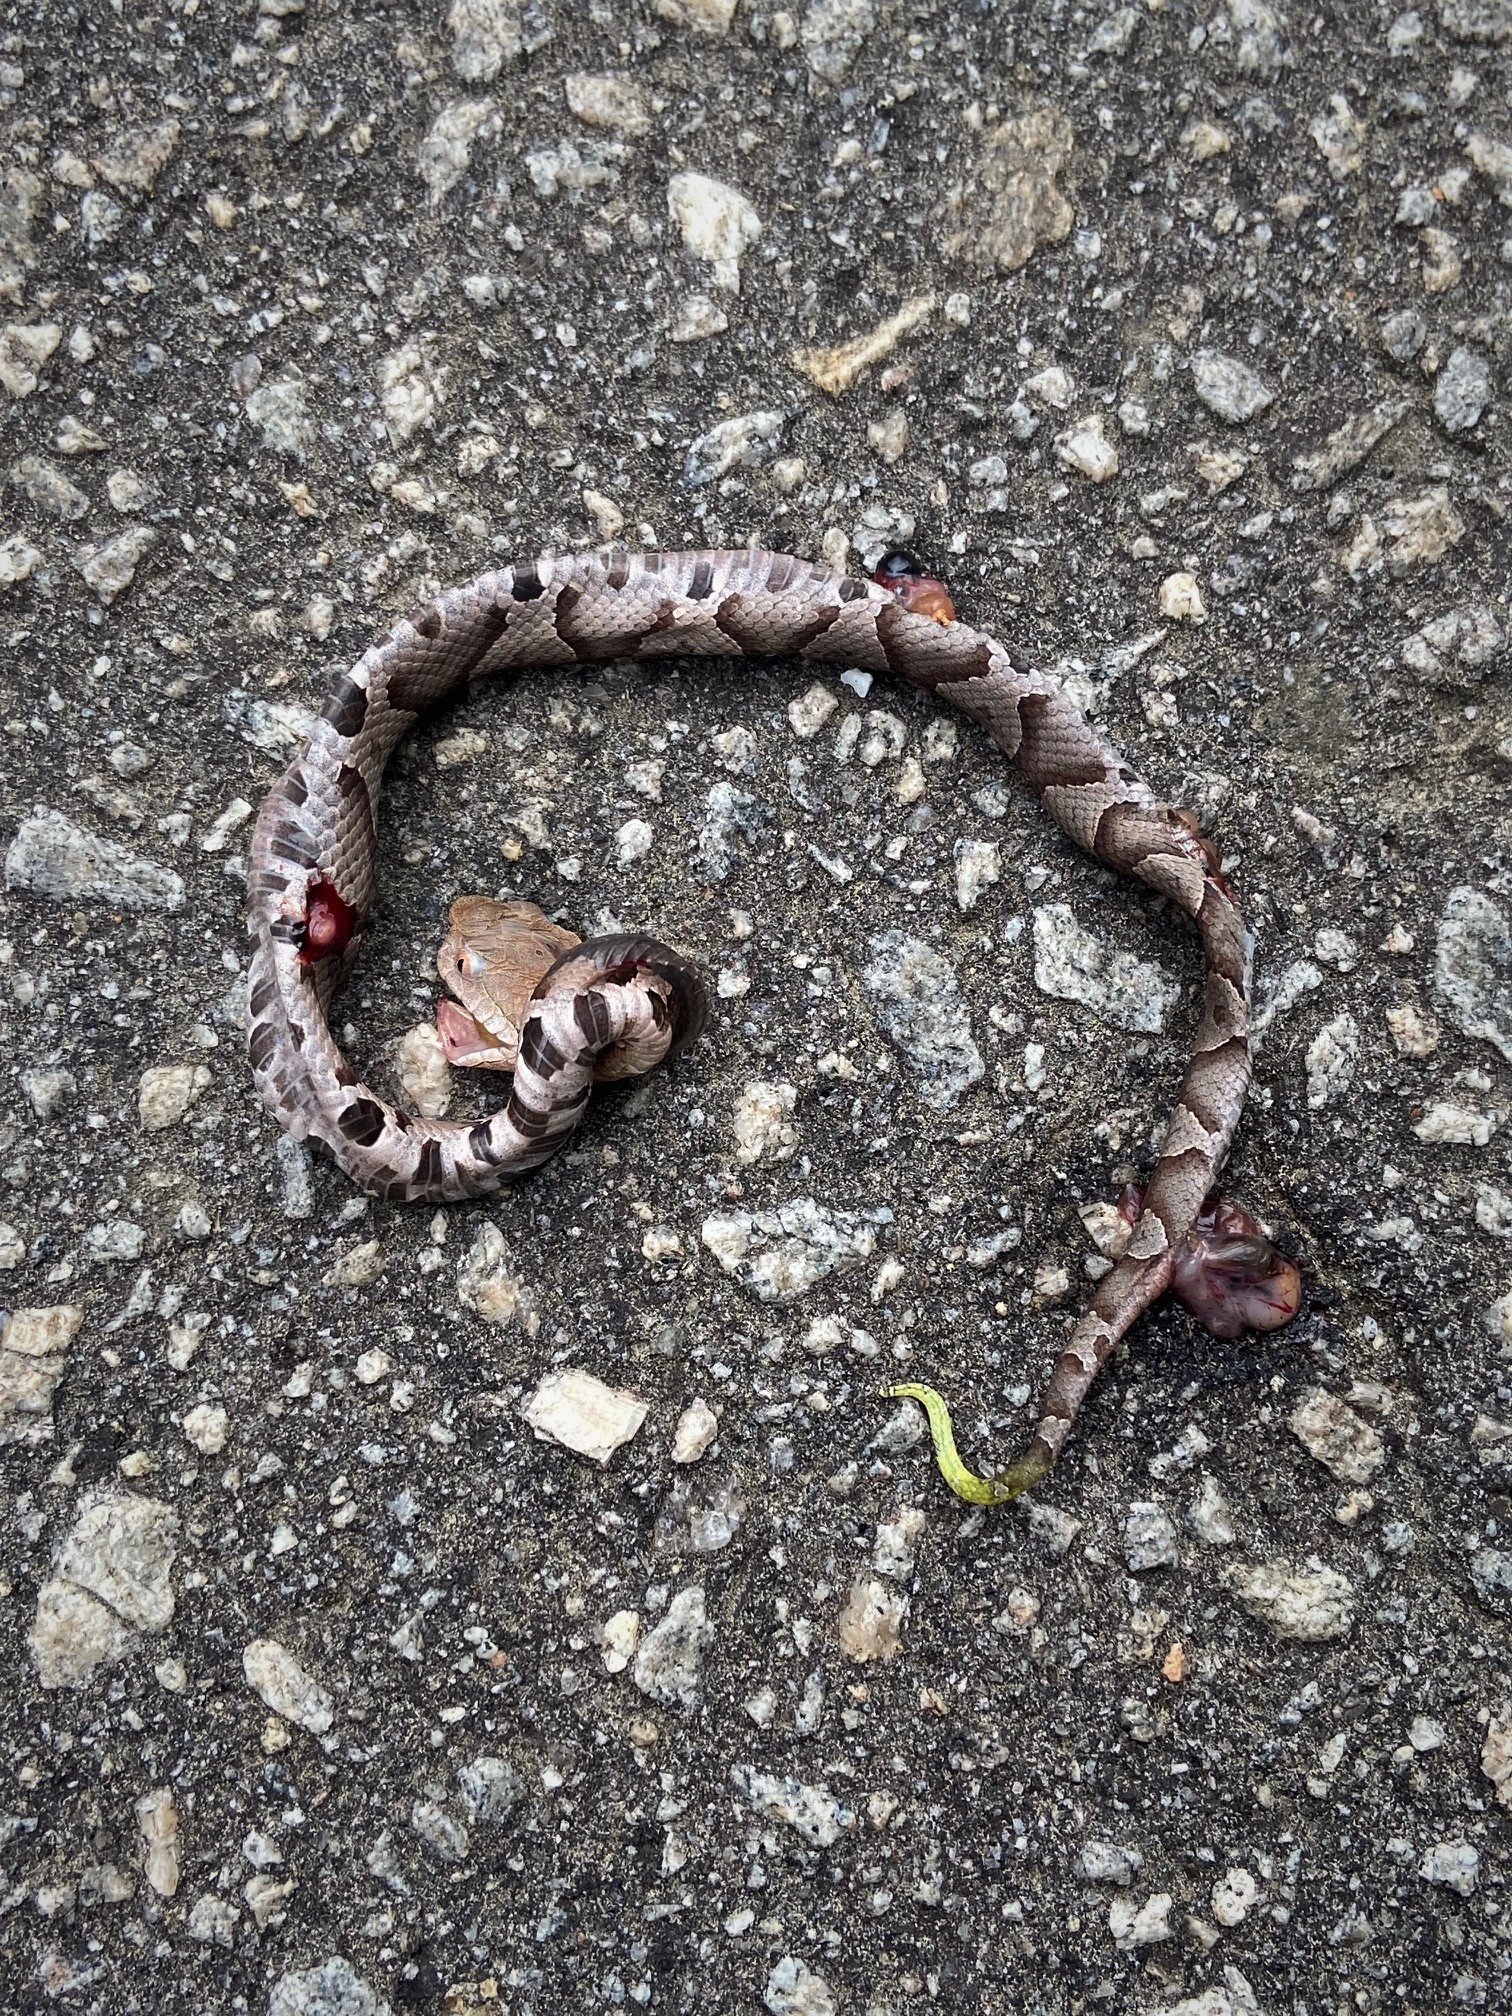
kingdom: Animalia
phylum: Chordata
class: Squamata
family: Viperidae
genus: Agkistrodon
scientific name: Agkistrodon contortrix
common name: Northern copperhead
